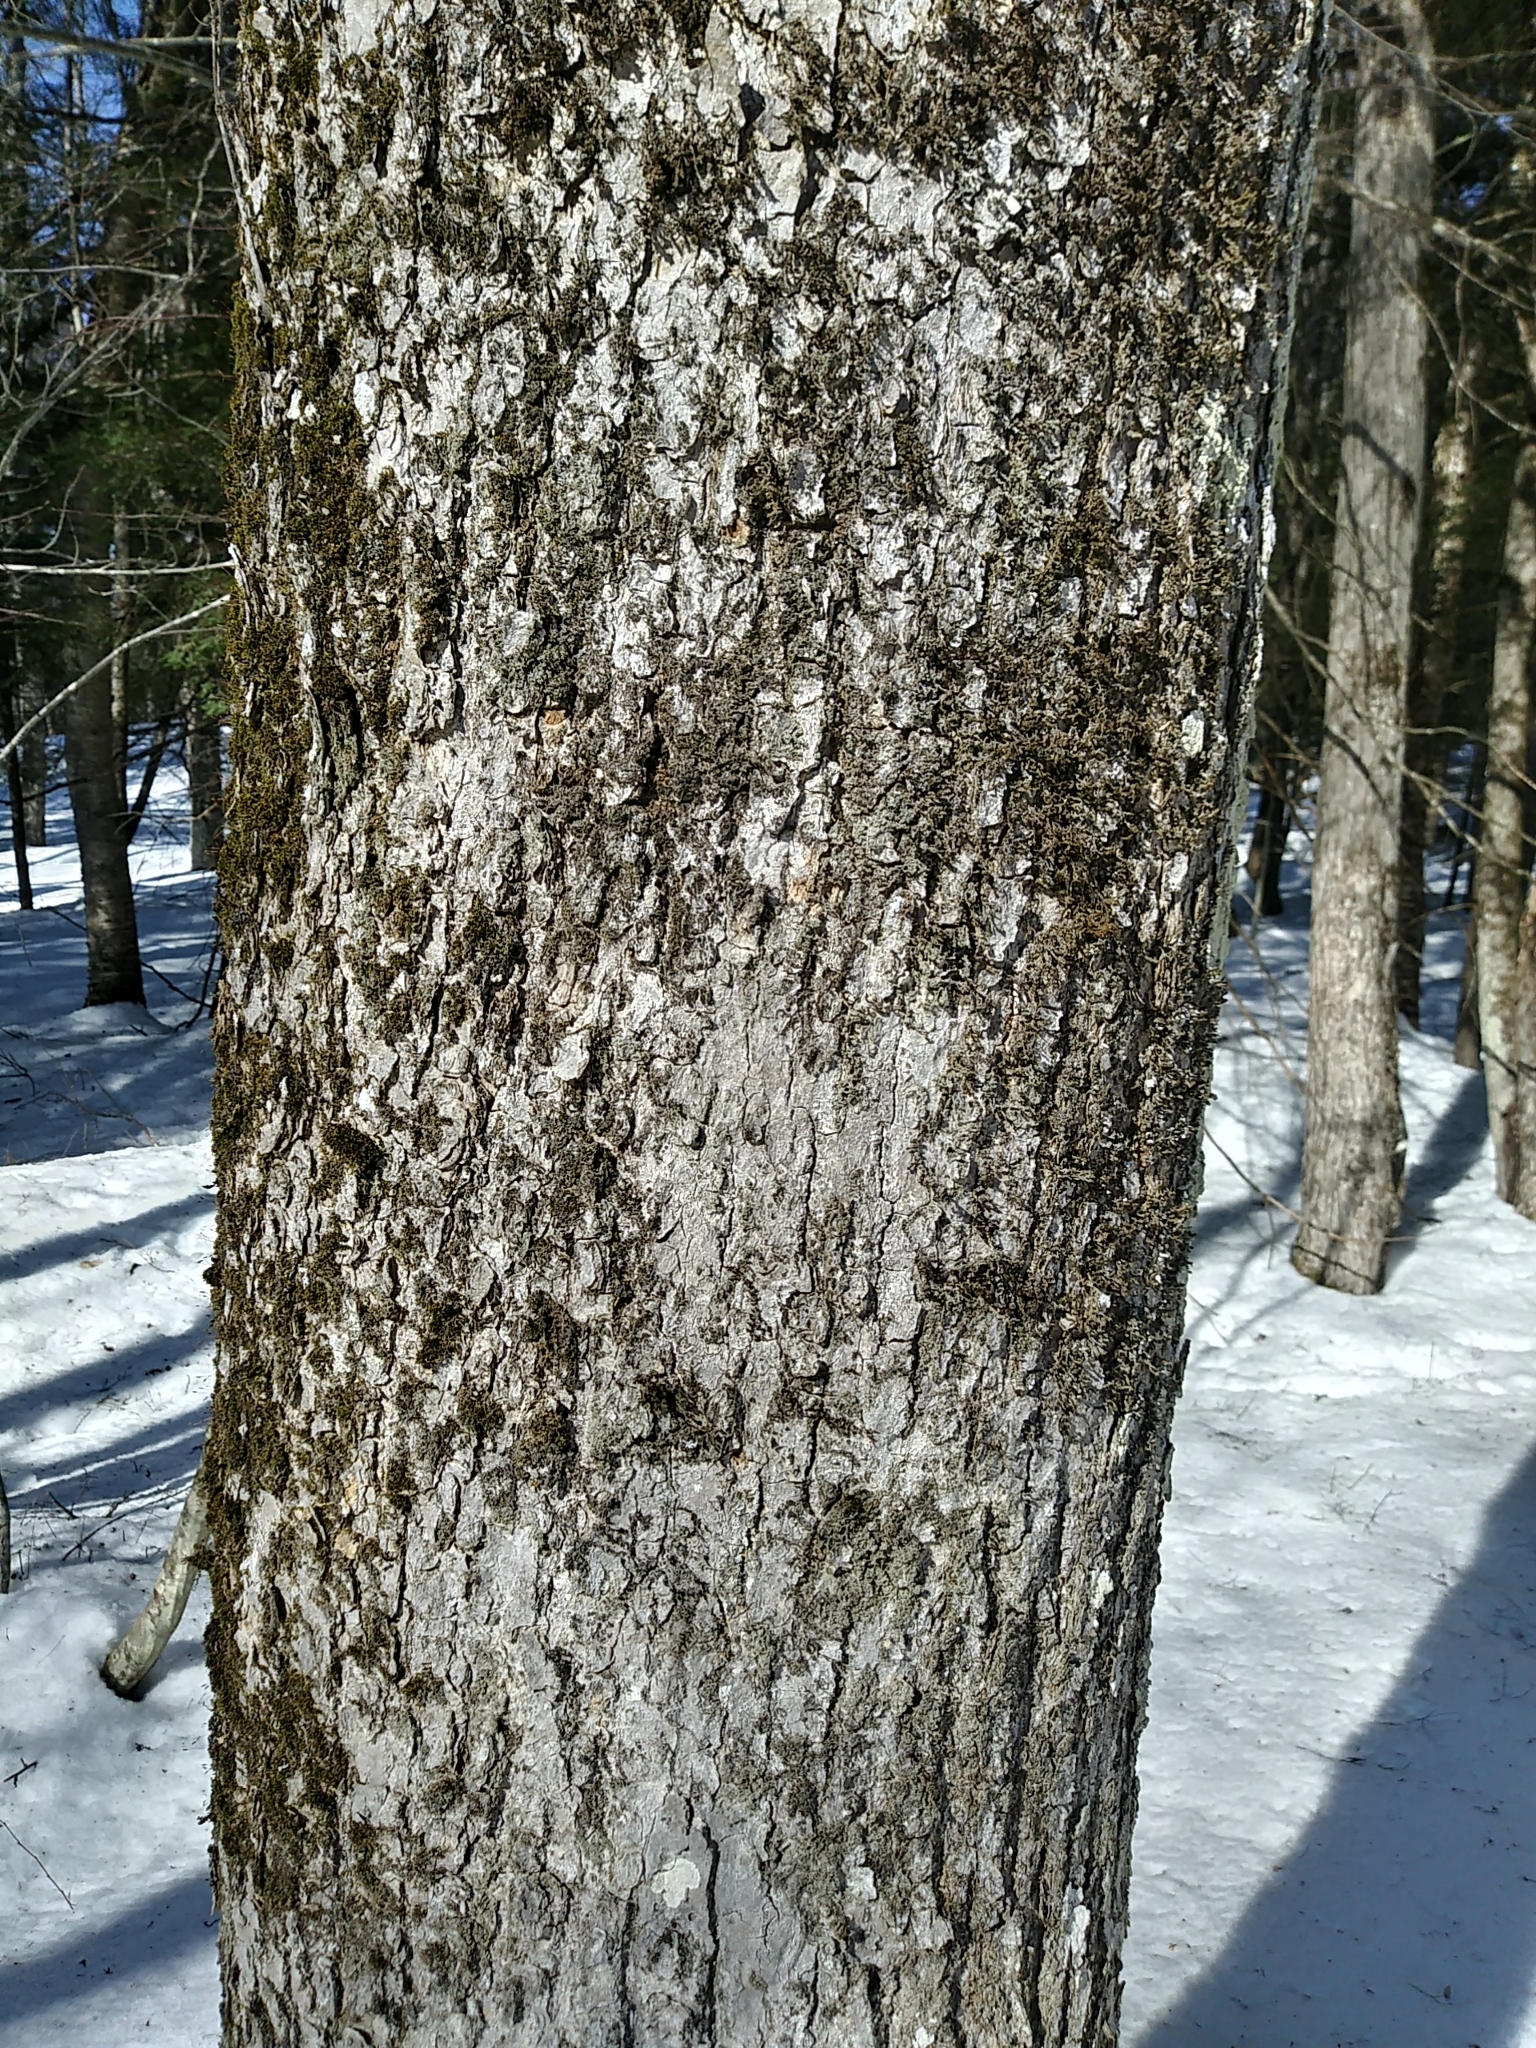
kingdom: Plantae
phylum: Tracheophyta
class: Magnoliopsida
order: Lamiales
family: Oleaceae
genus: Fraxinus
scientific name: Fraxinus nigra
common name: Black ash
